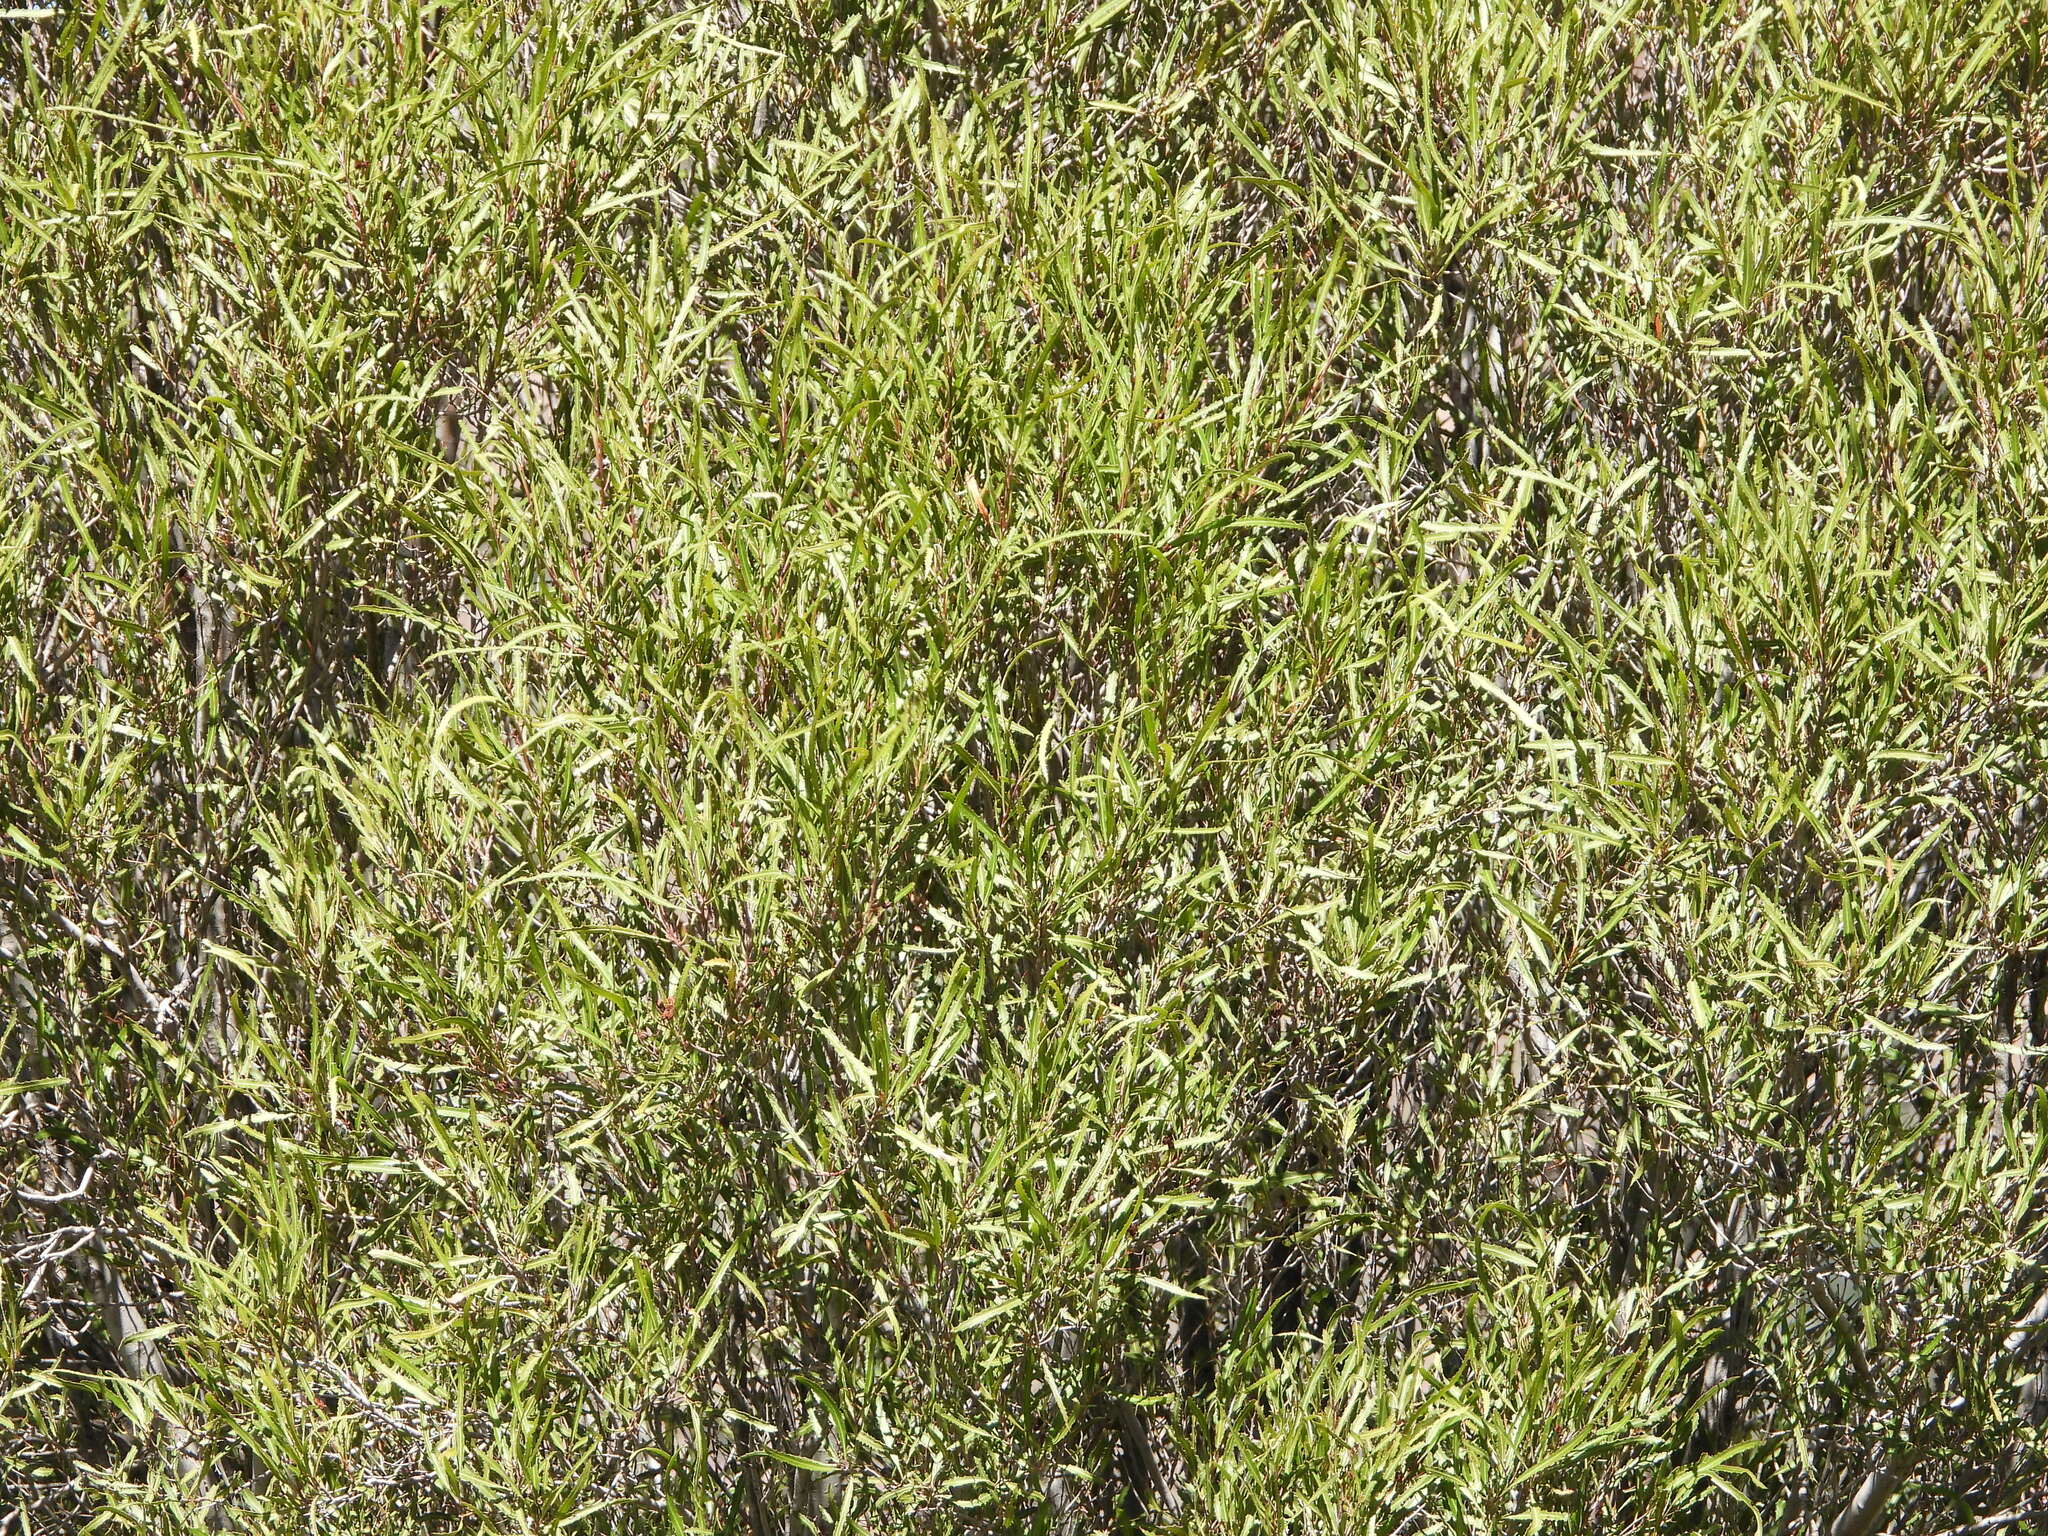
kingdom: Plantae
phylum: Tracheophyta
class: Magnoliopsida
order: Rosales
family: Rosaceae
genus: Vauquelinia
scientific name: Vauquelinia corymbosa
